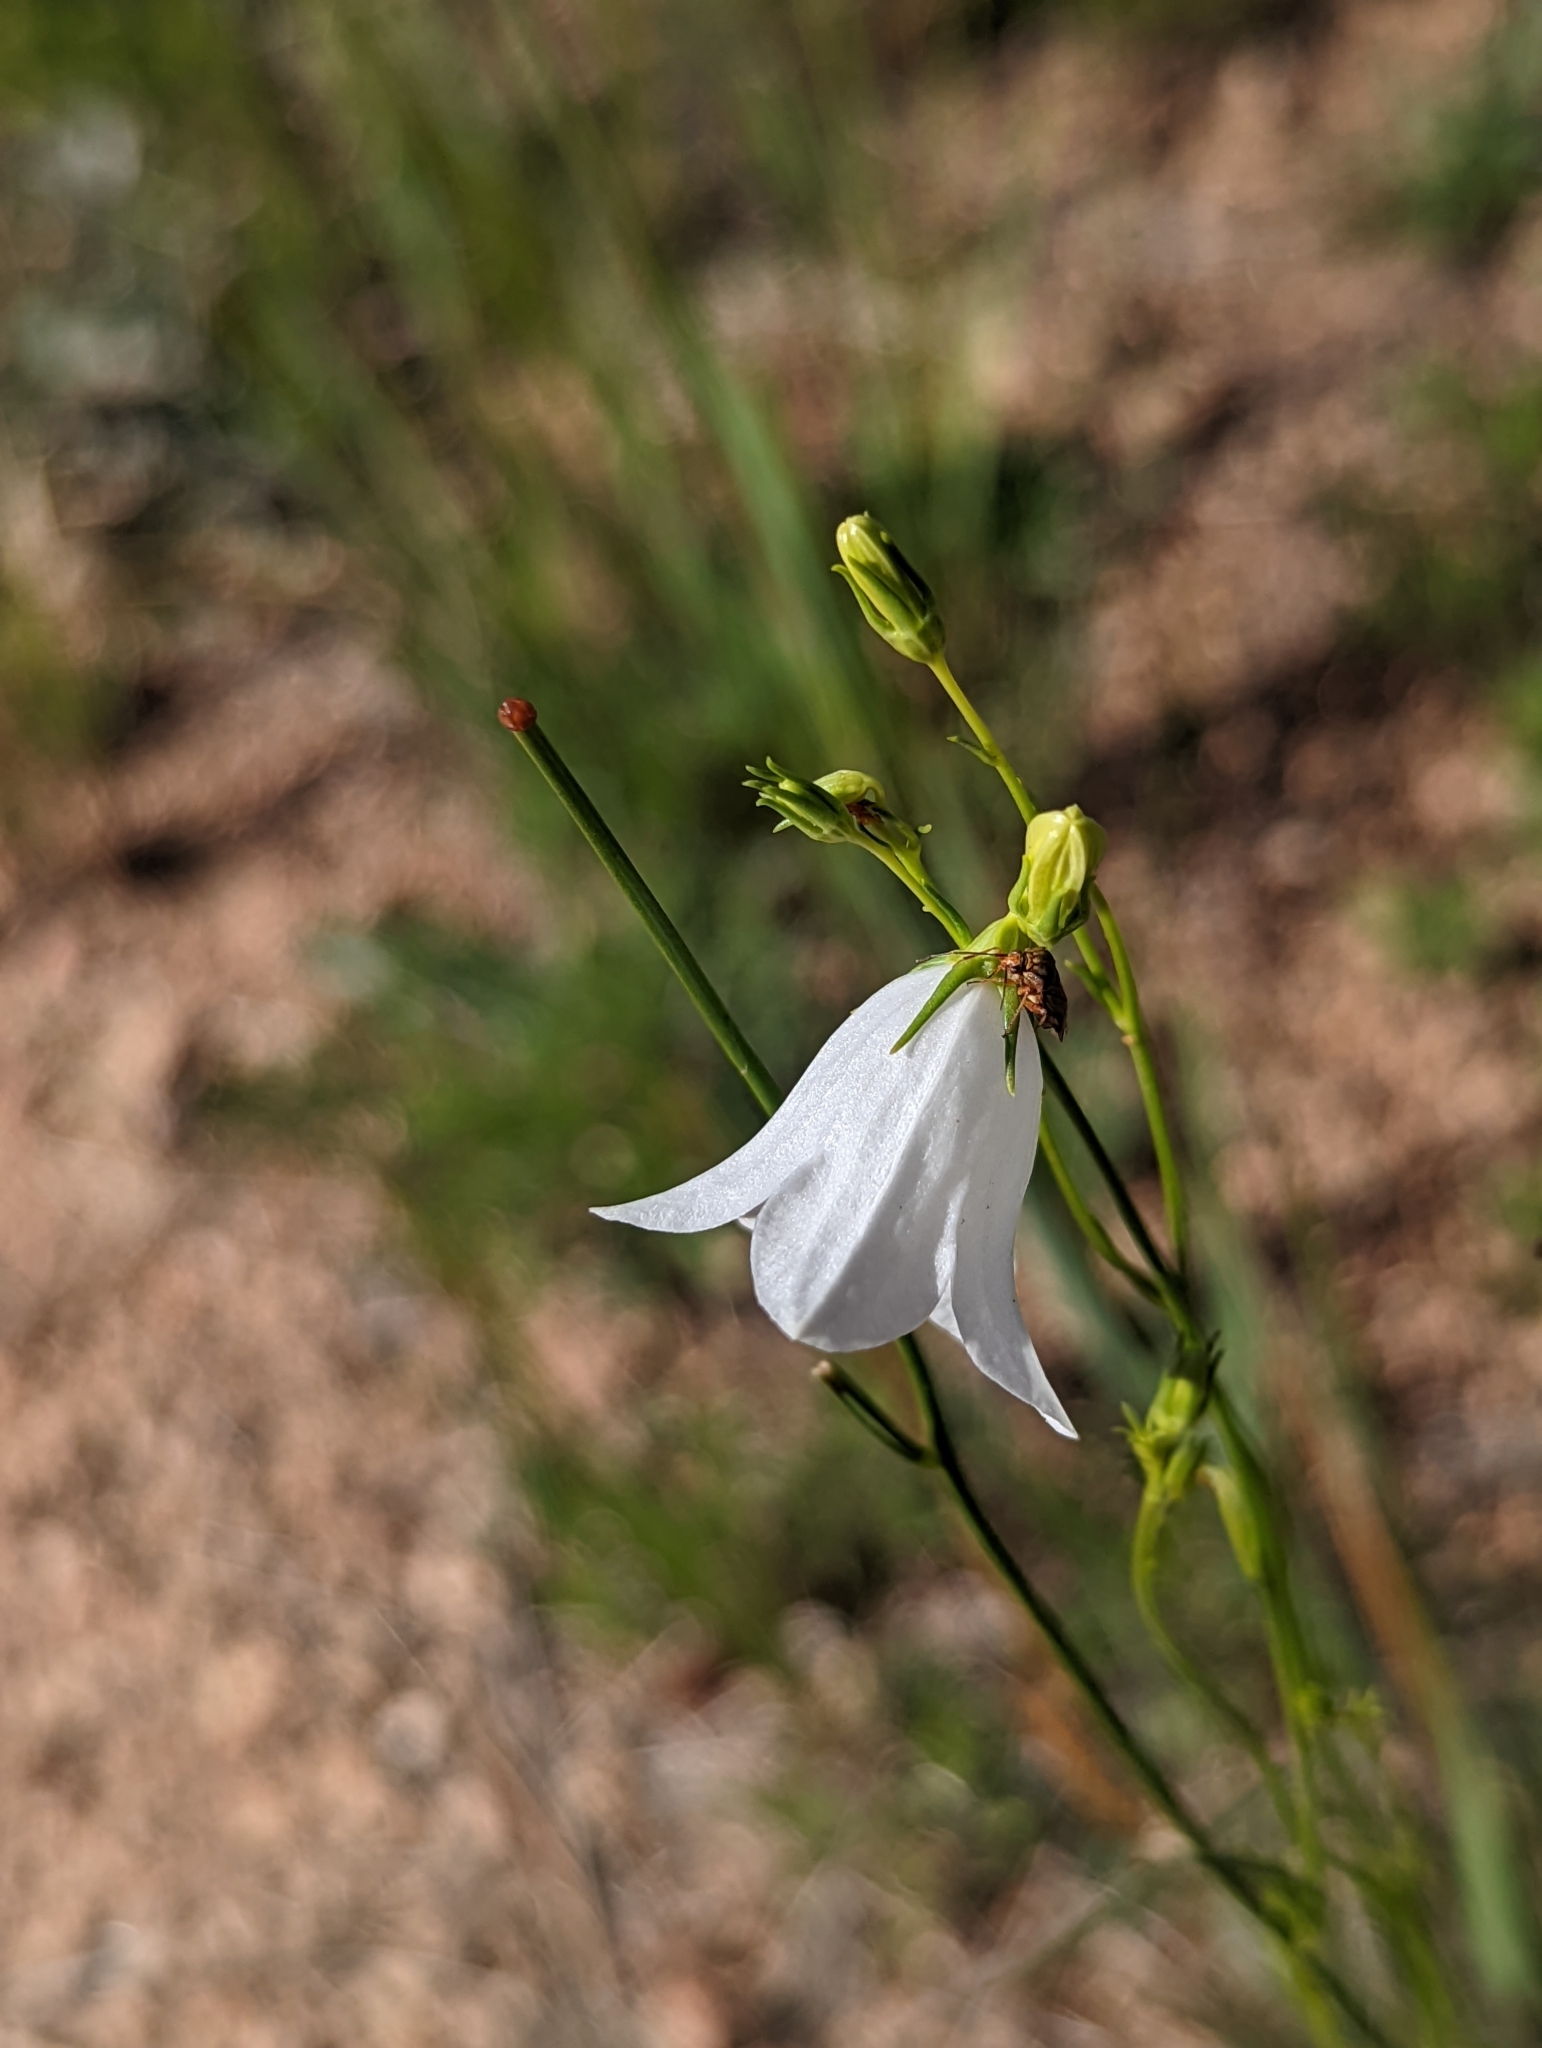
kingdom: Plantae
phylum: Tracheophyta
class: Magnoliopsida
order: Asterales
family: Campanulaceae
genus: Campanula
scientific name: Campanula petiolata
